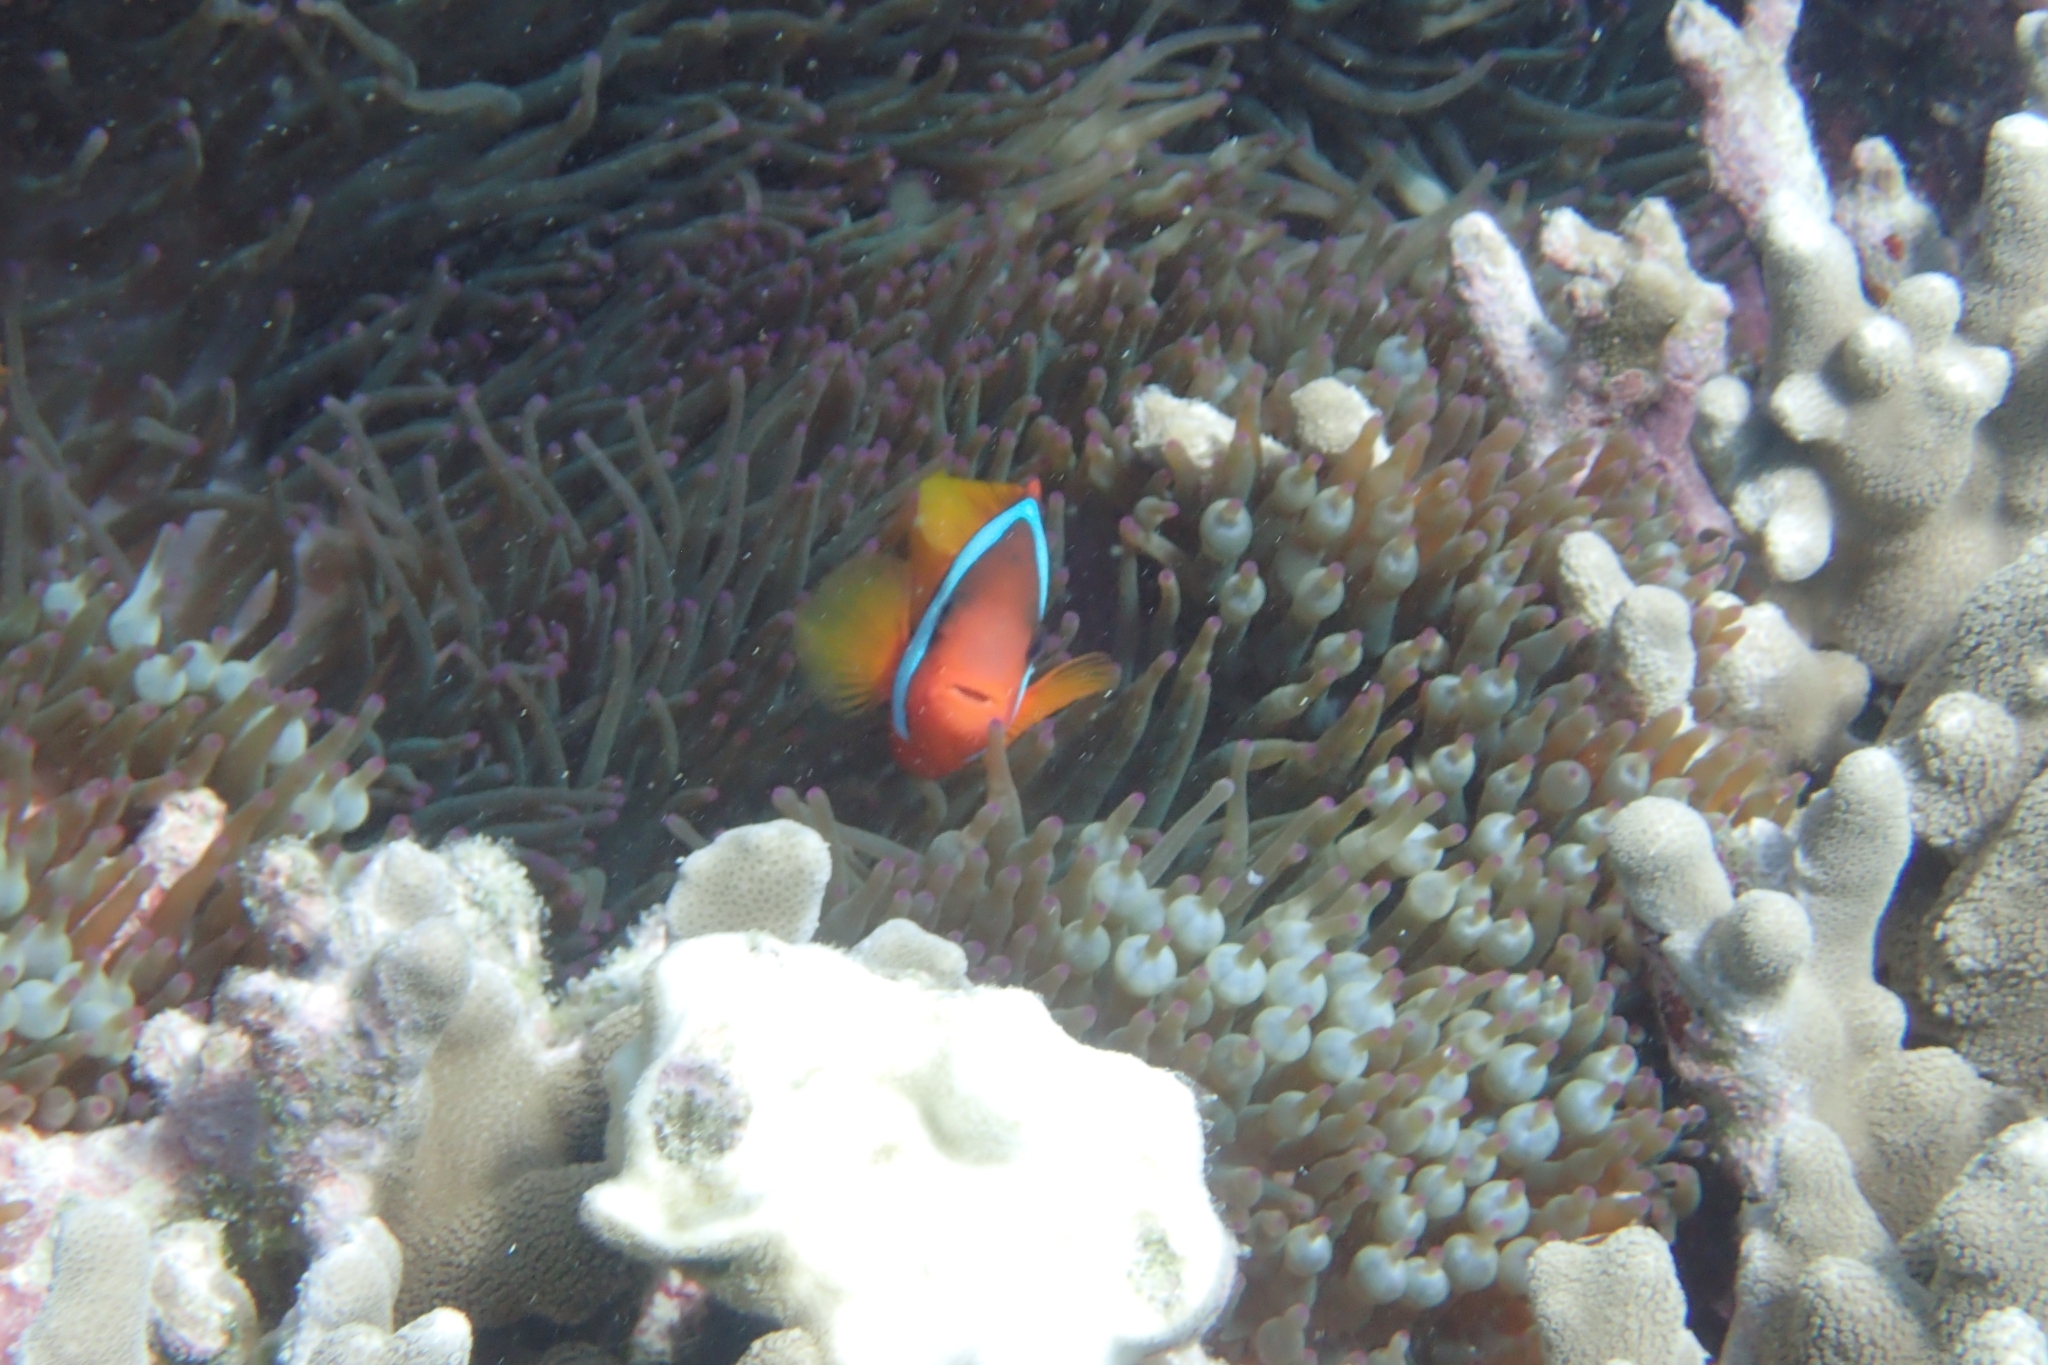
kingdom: Animalia
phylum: Chordata
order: Perciformes
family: Pomacentridae
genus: Amphiprion
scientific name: Amphiprion melanopus
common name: Black anemonefish
